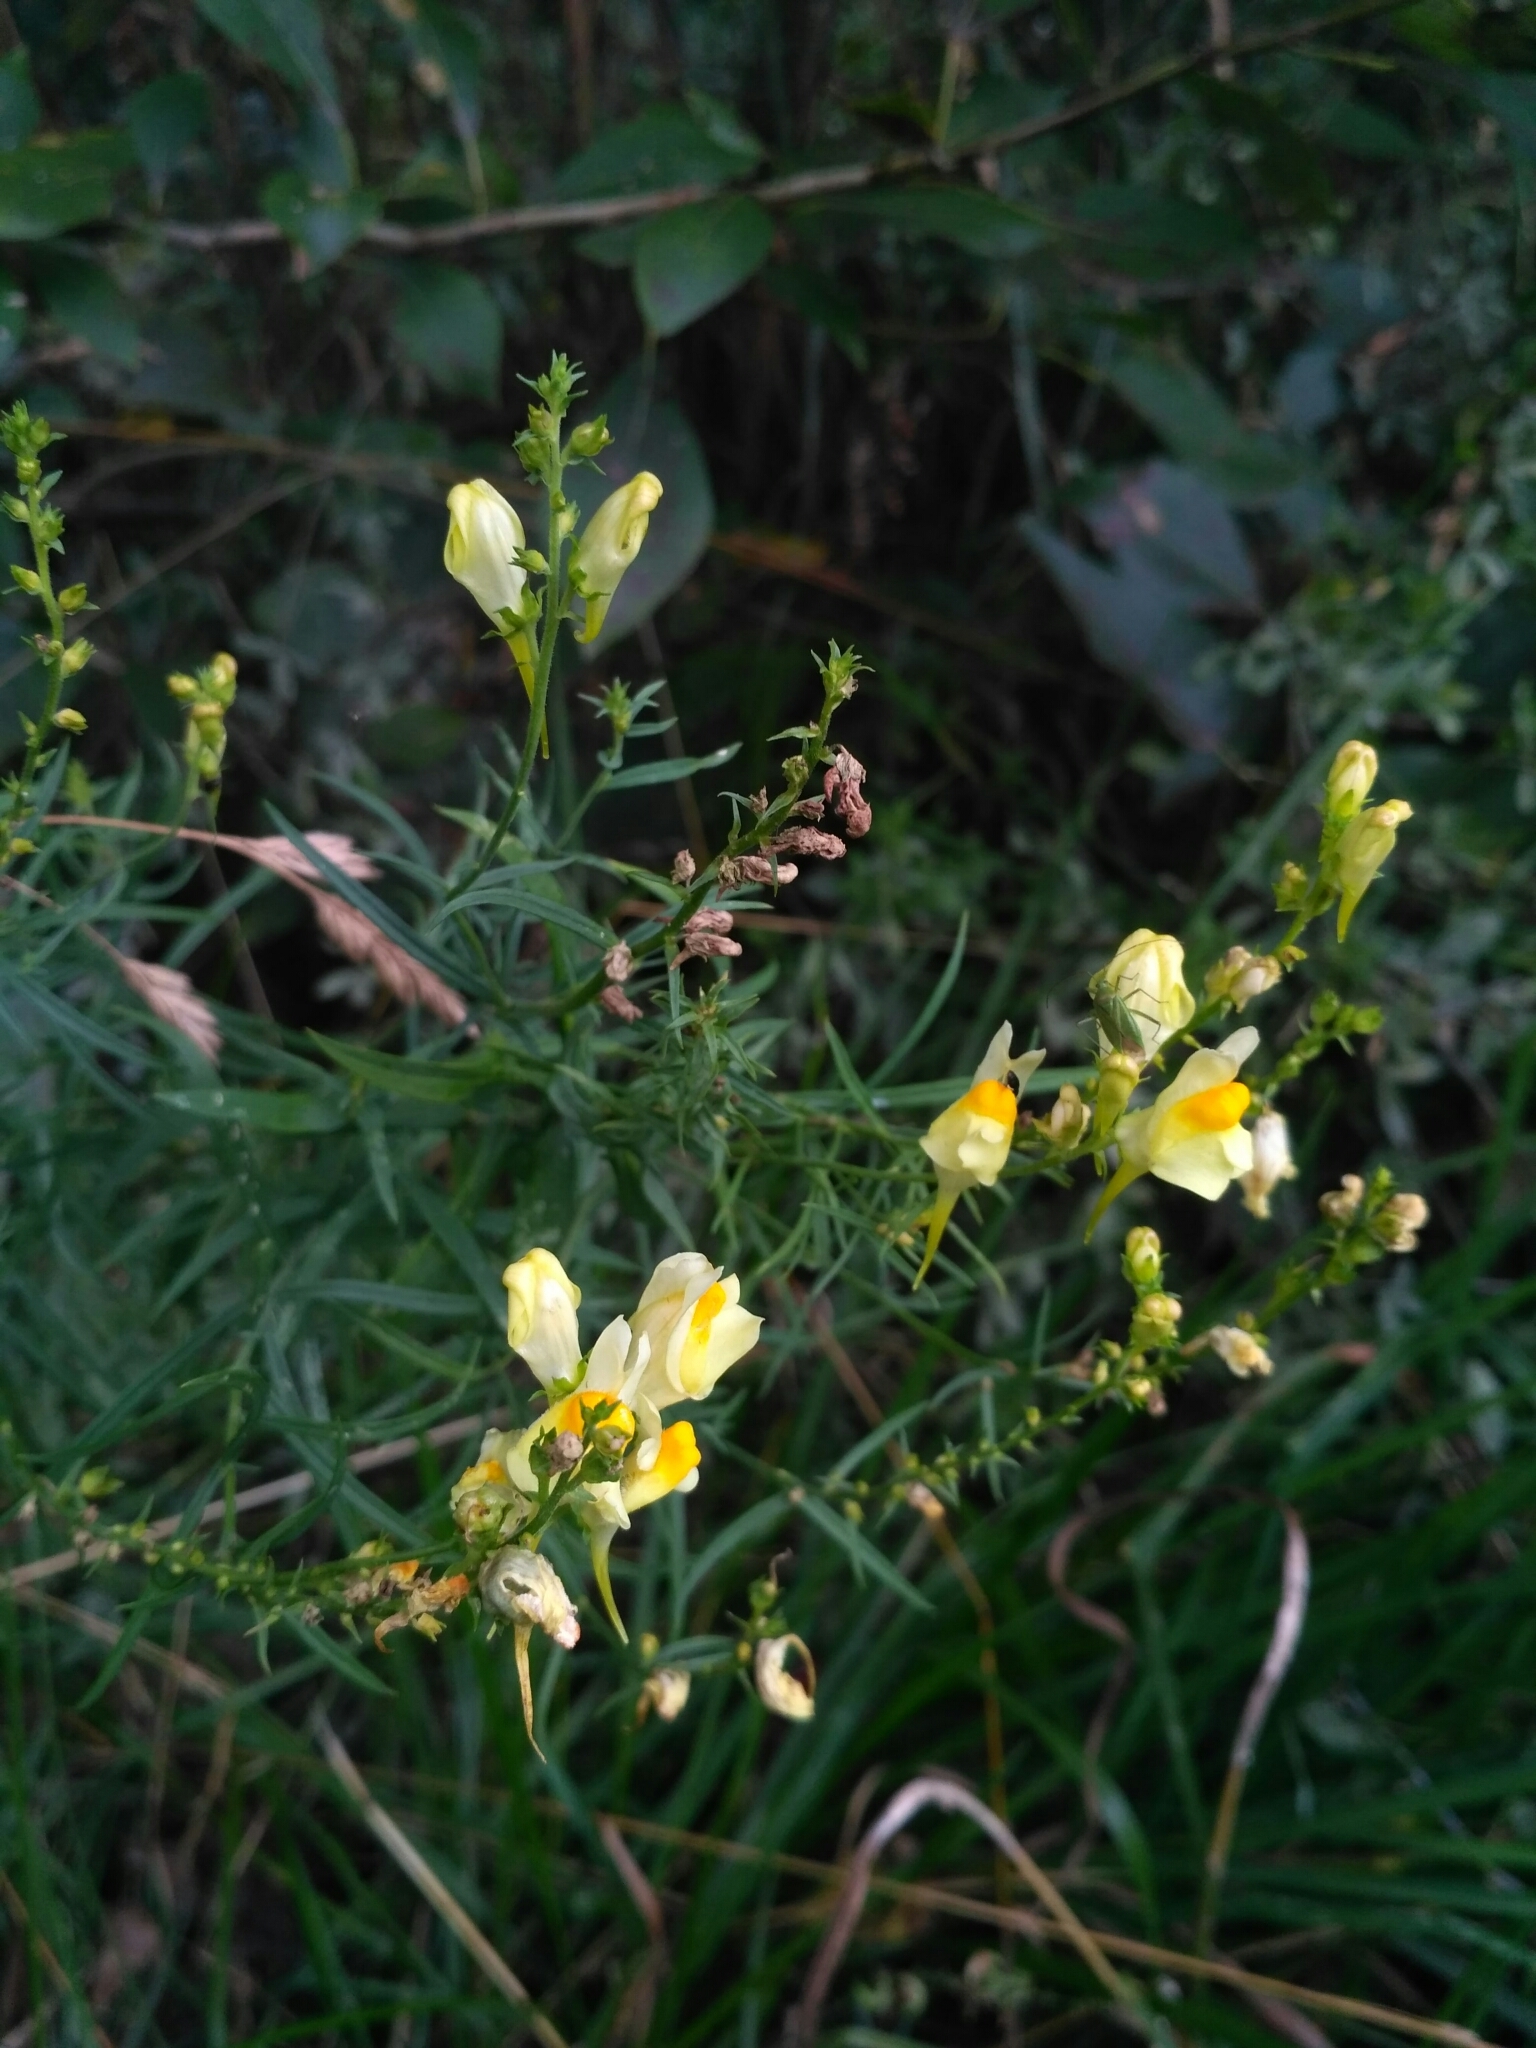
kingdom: Plantae
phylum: Tracheophyta
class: Magnoliopsida
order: Lamiales
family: Plantaginaceae
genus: Linaria
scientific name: Linaria vulgaris
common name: Butter and eggs
